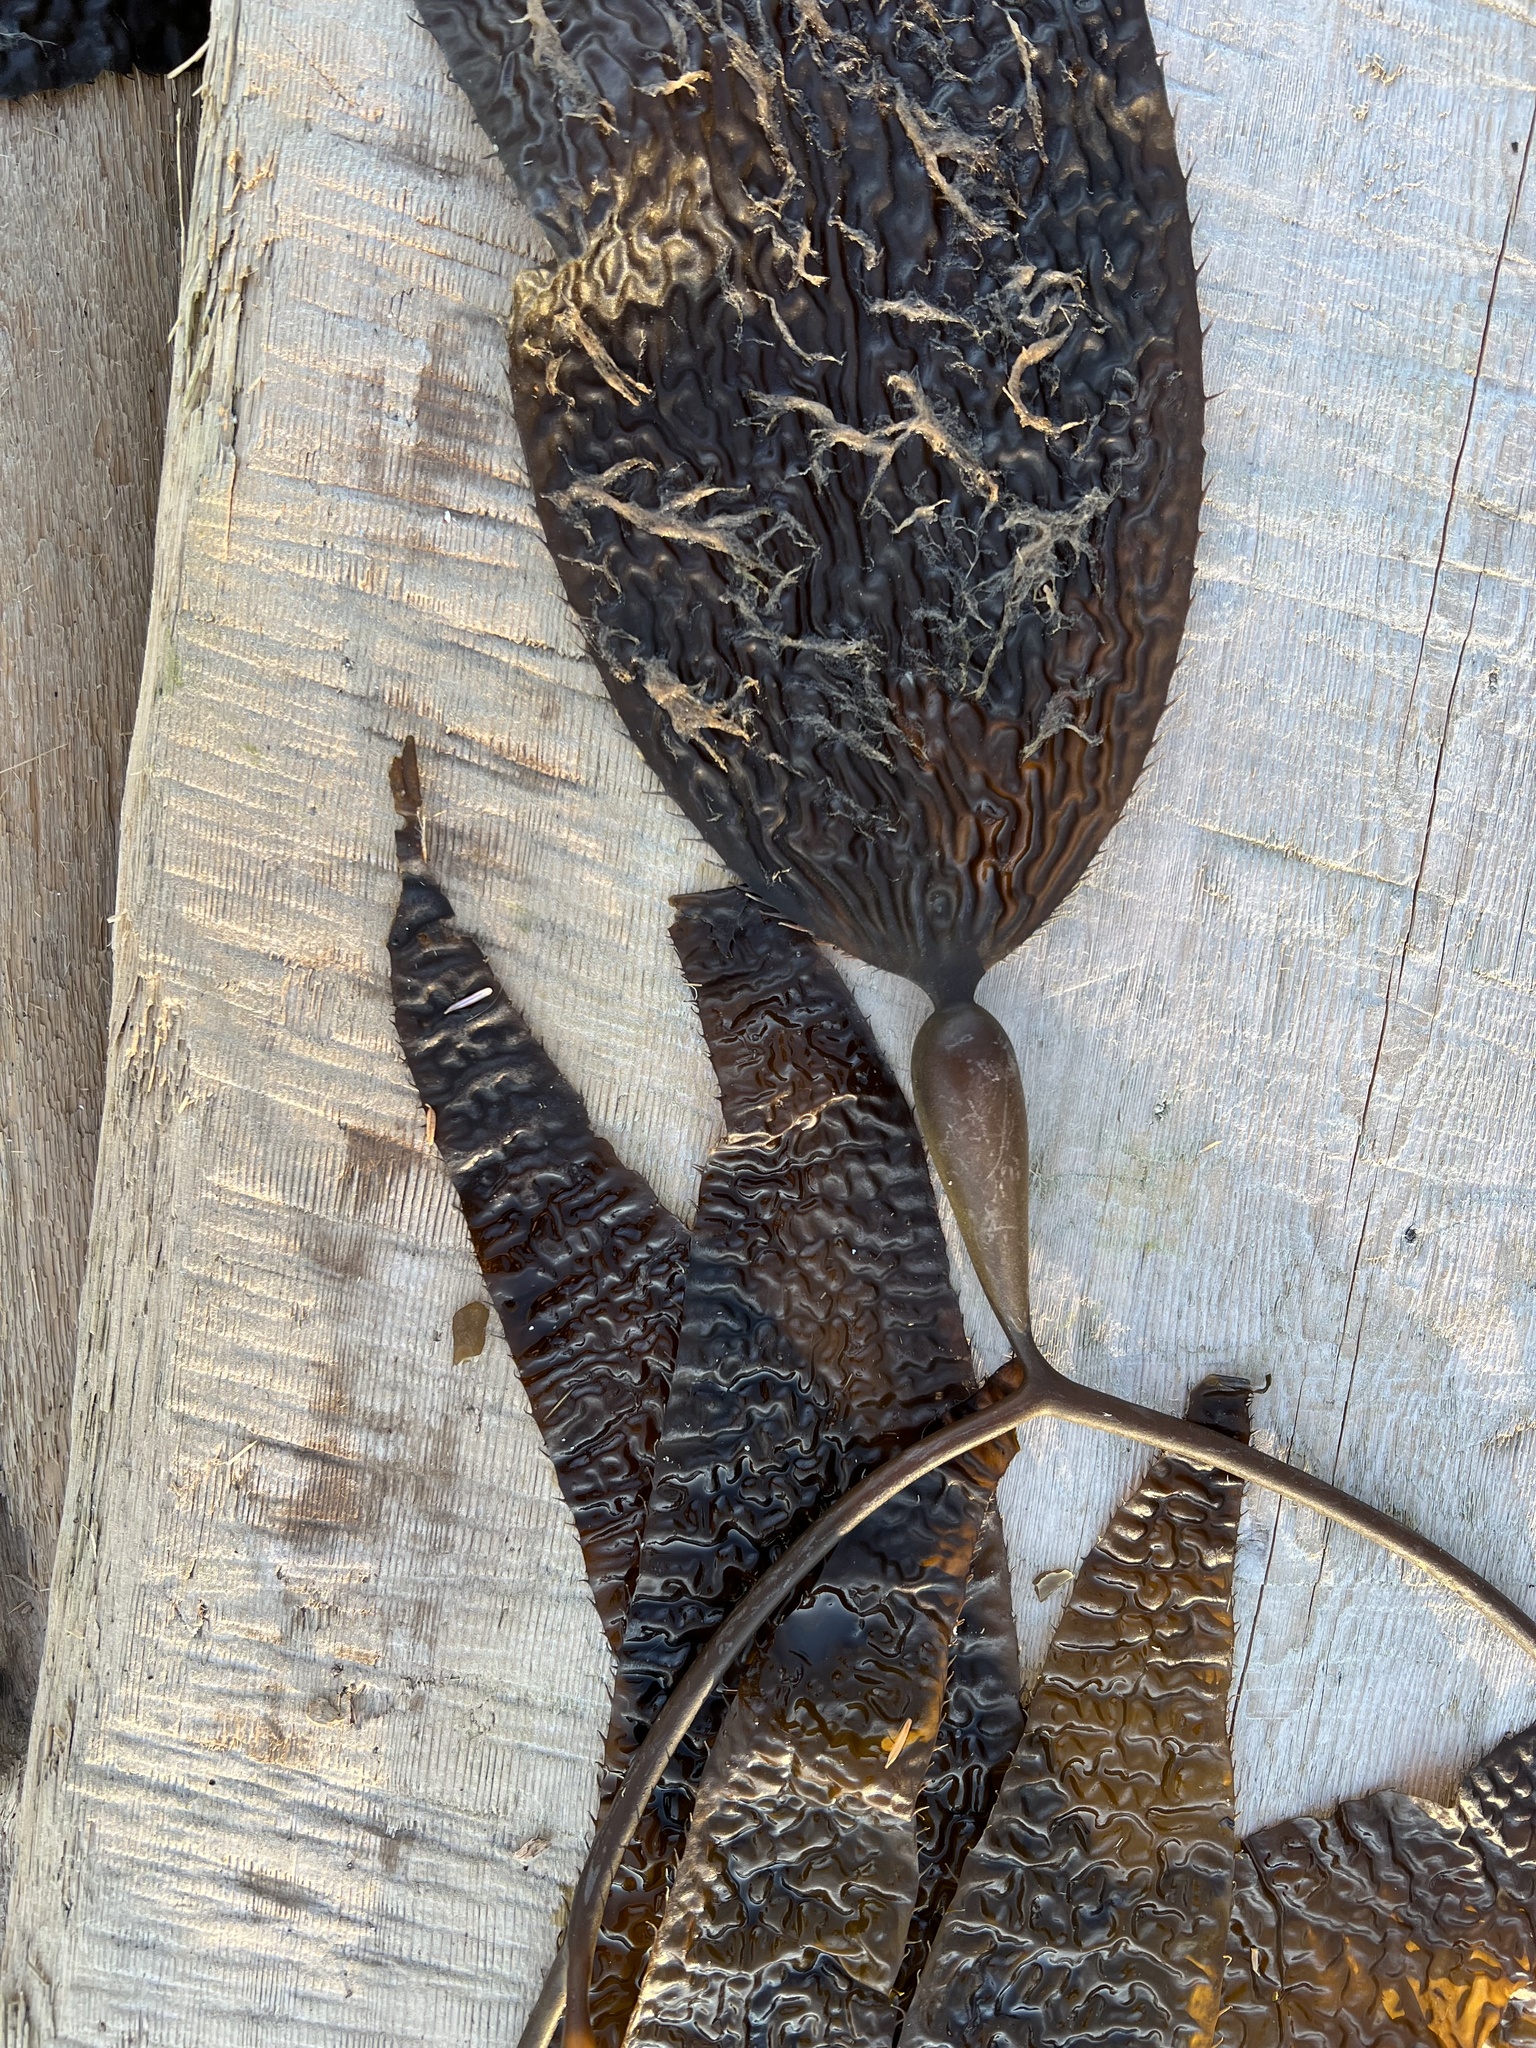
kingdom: Chromista
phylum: Ochrophyta
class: Phaeophyceae
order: Laminariales
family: Laminariaceae
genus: Macrocystis
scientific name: Macrocystis pyrifera
